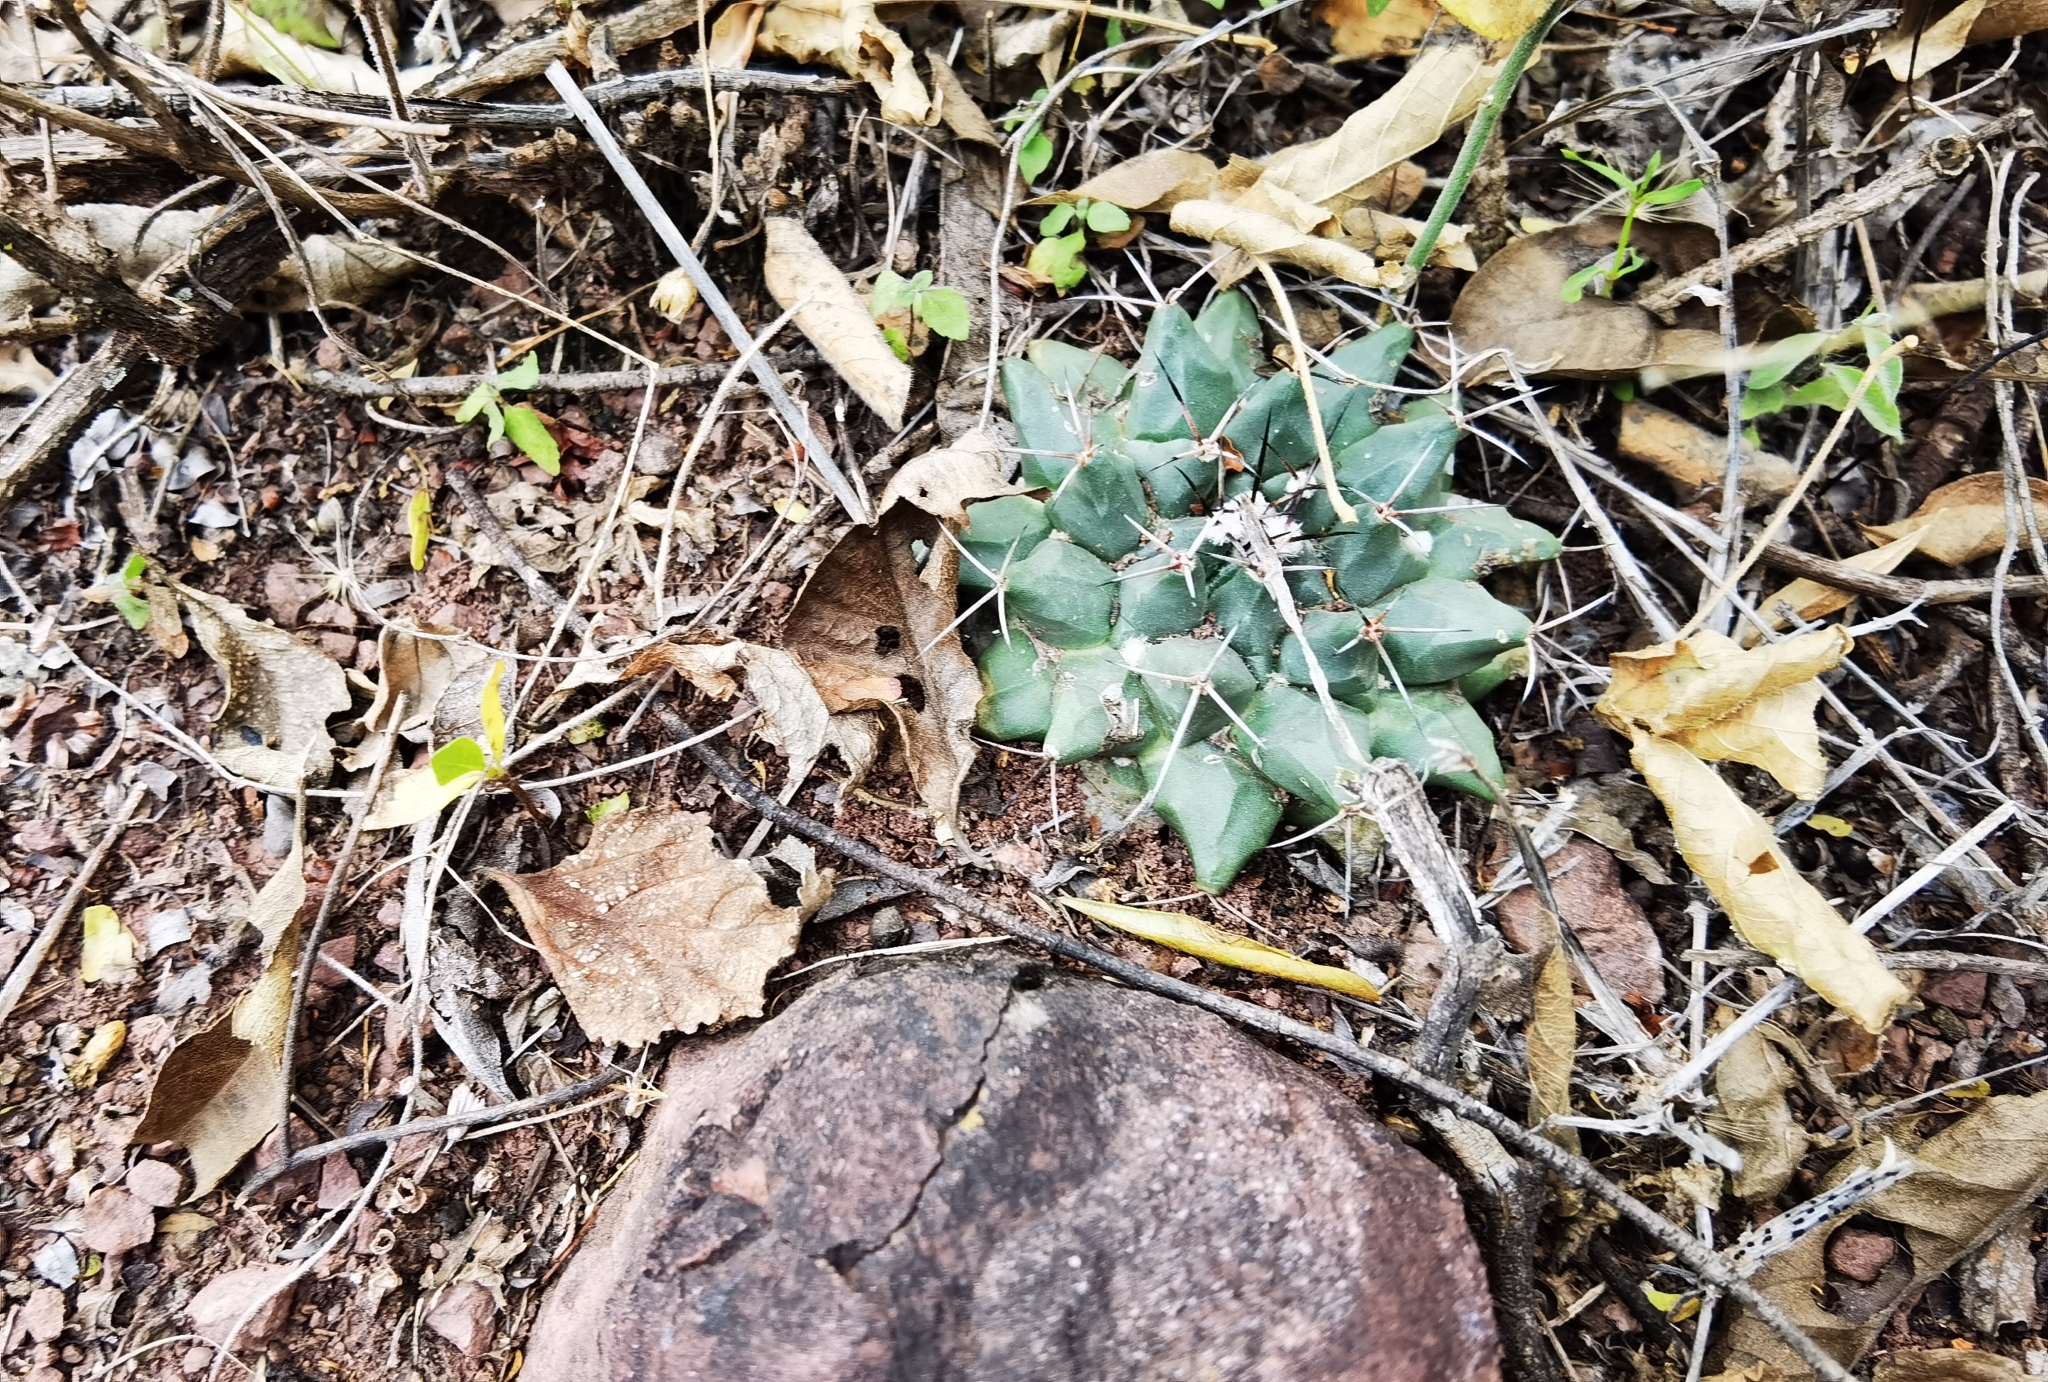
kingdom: Plantae
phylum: Tracheophyta
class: Magnoliopsida
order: Caryophyllales
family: Cactaceae
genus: Mammillaria
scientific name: Mammillaria roseoalba
